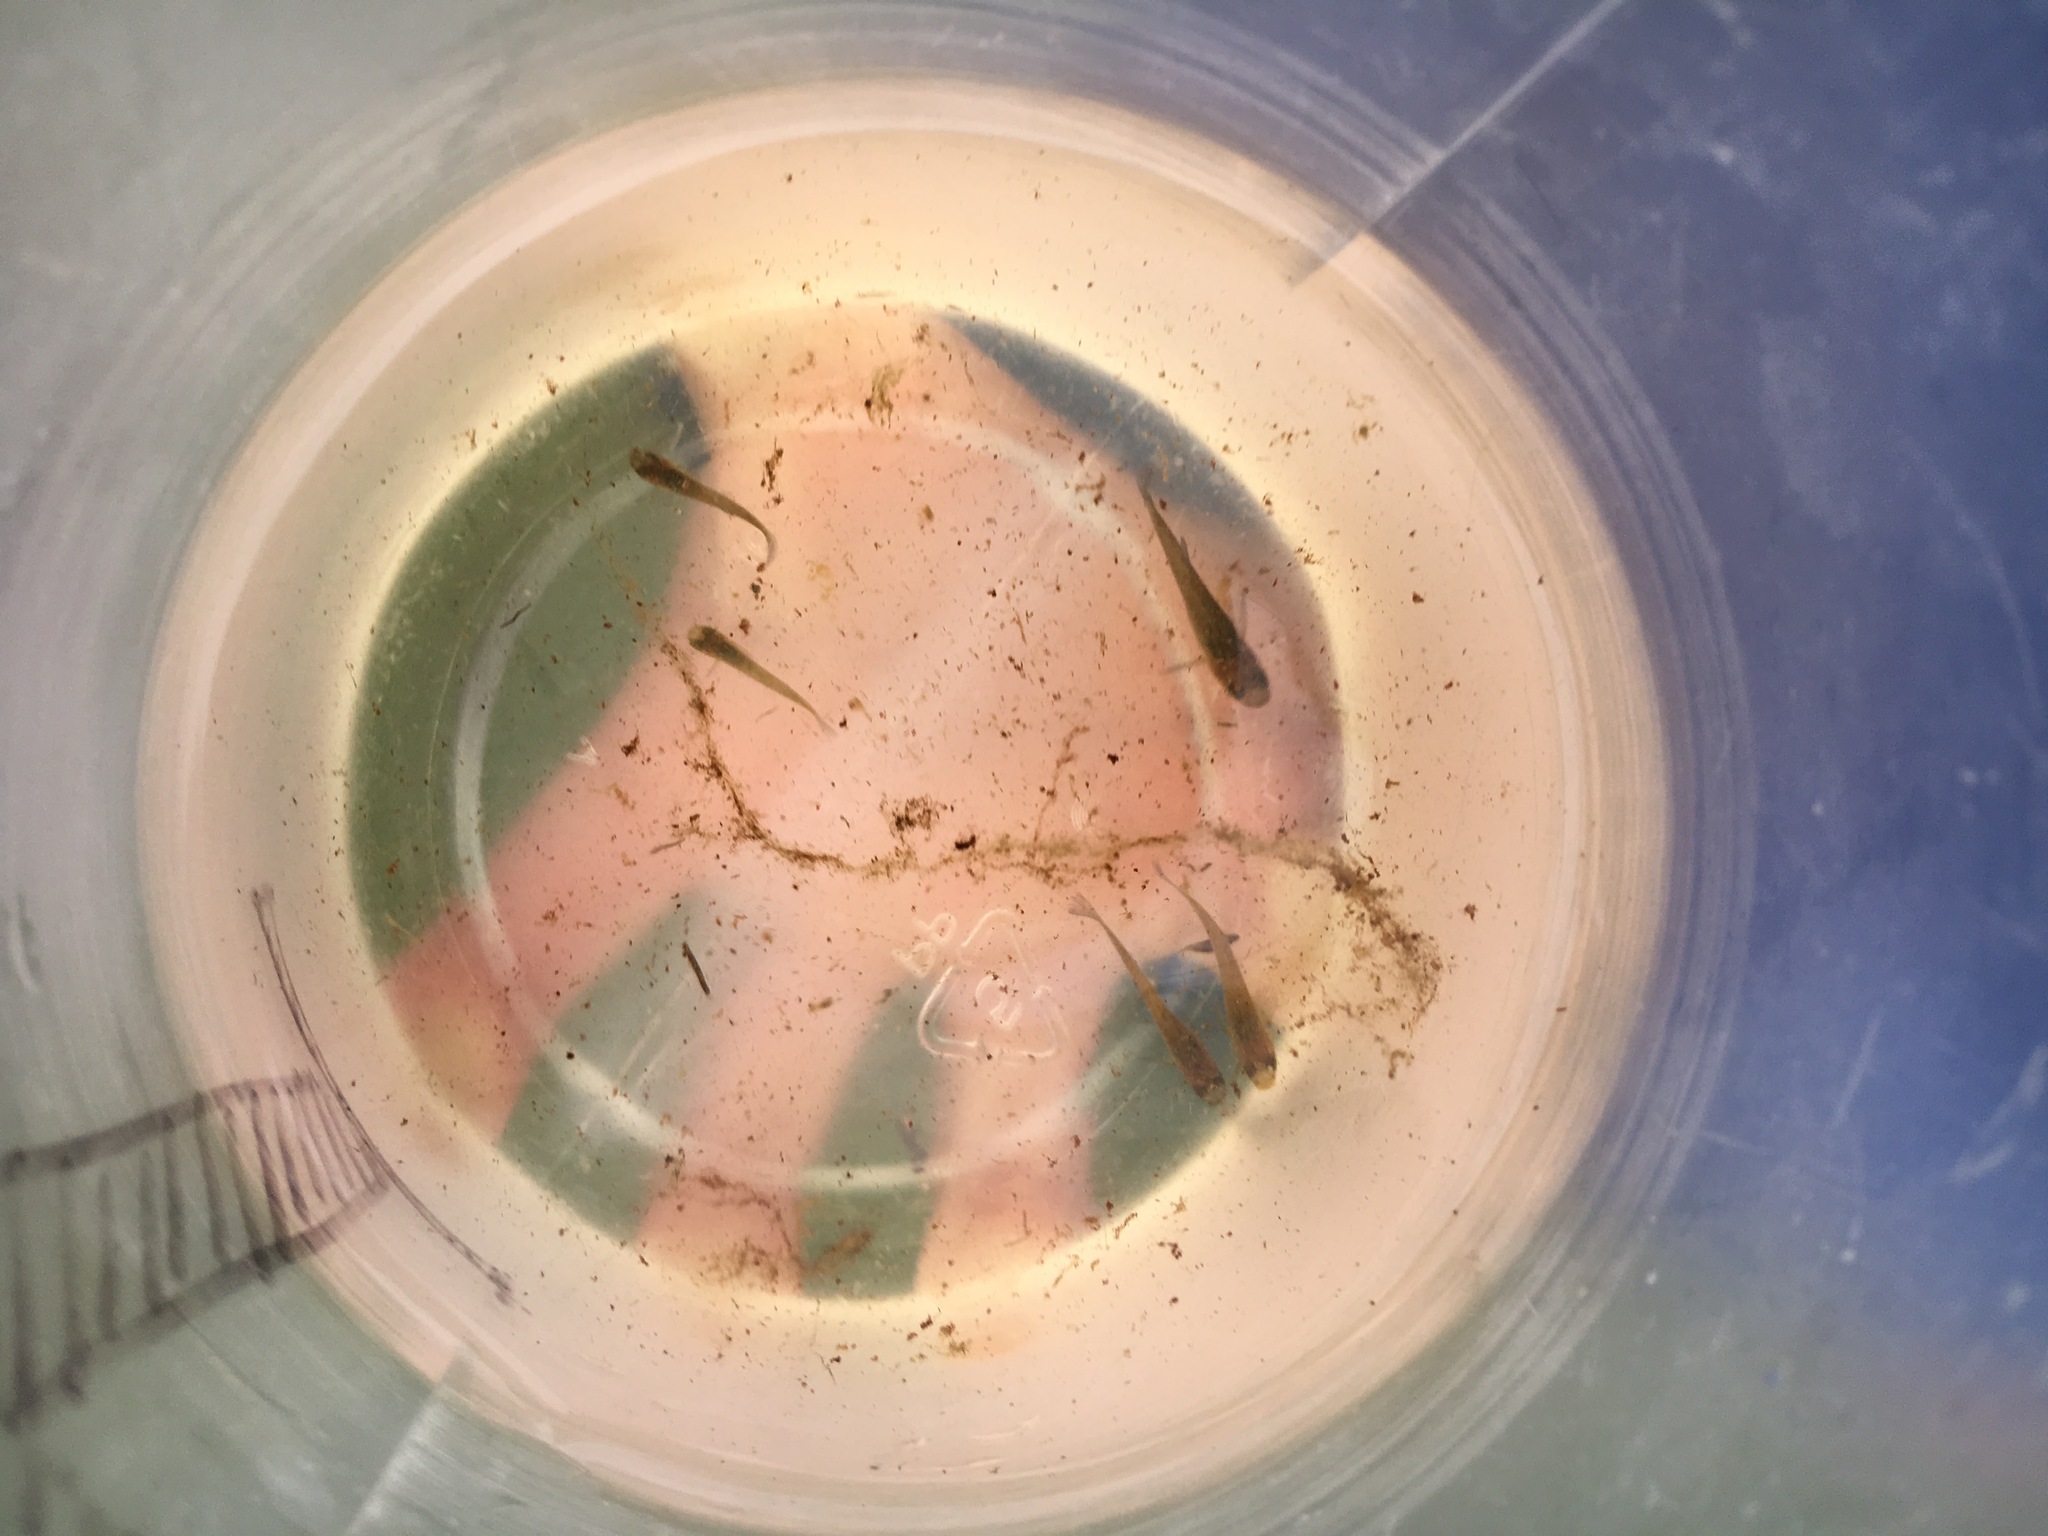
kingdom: Animalia
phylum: Chordata
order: Cyprinodontiformes
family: Poeciliidae
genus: Gambusia
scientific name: Gambusia affinis
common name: Mosquitofish
